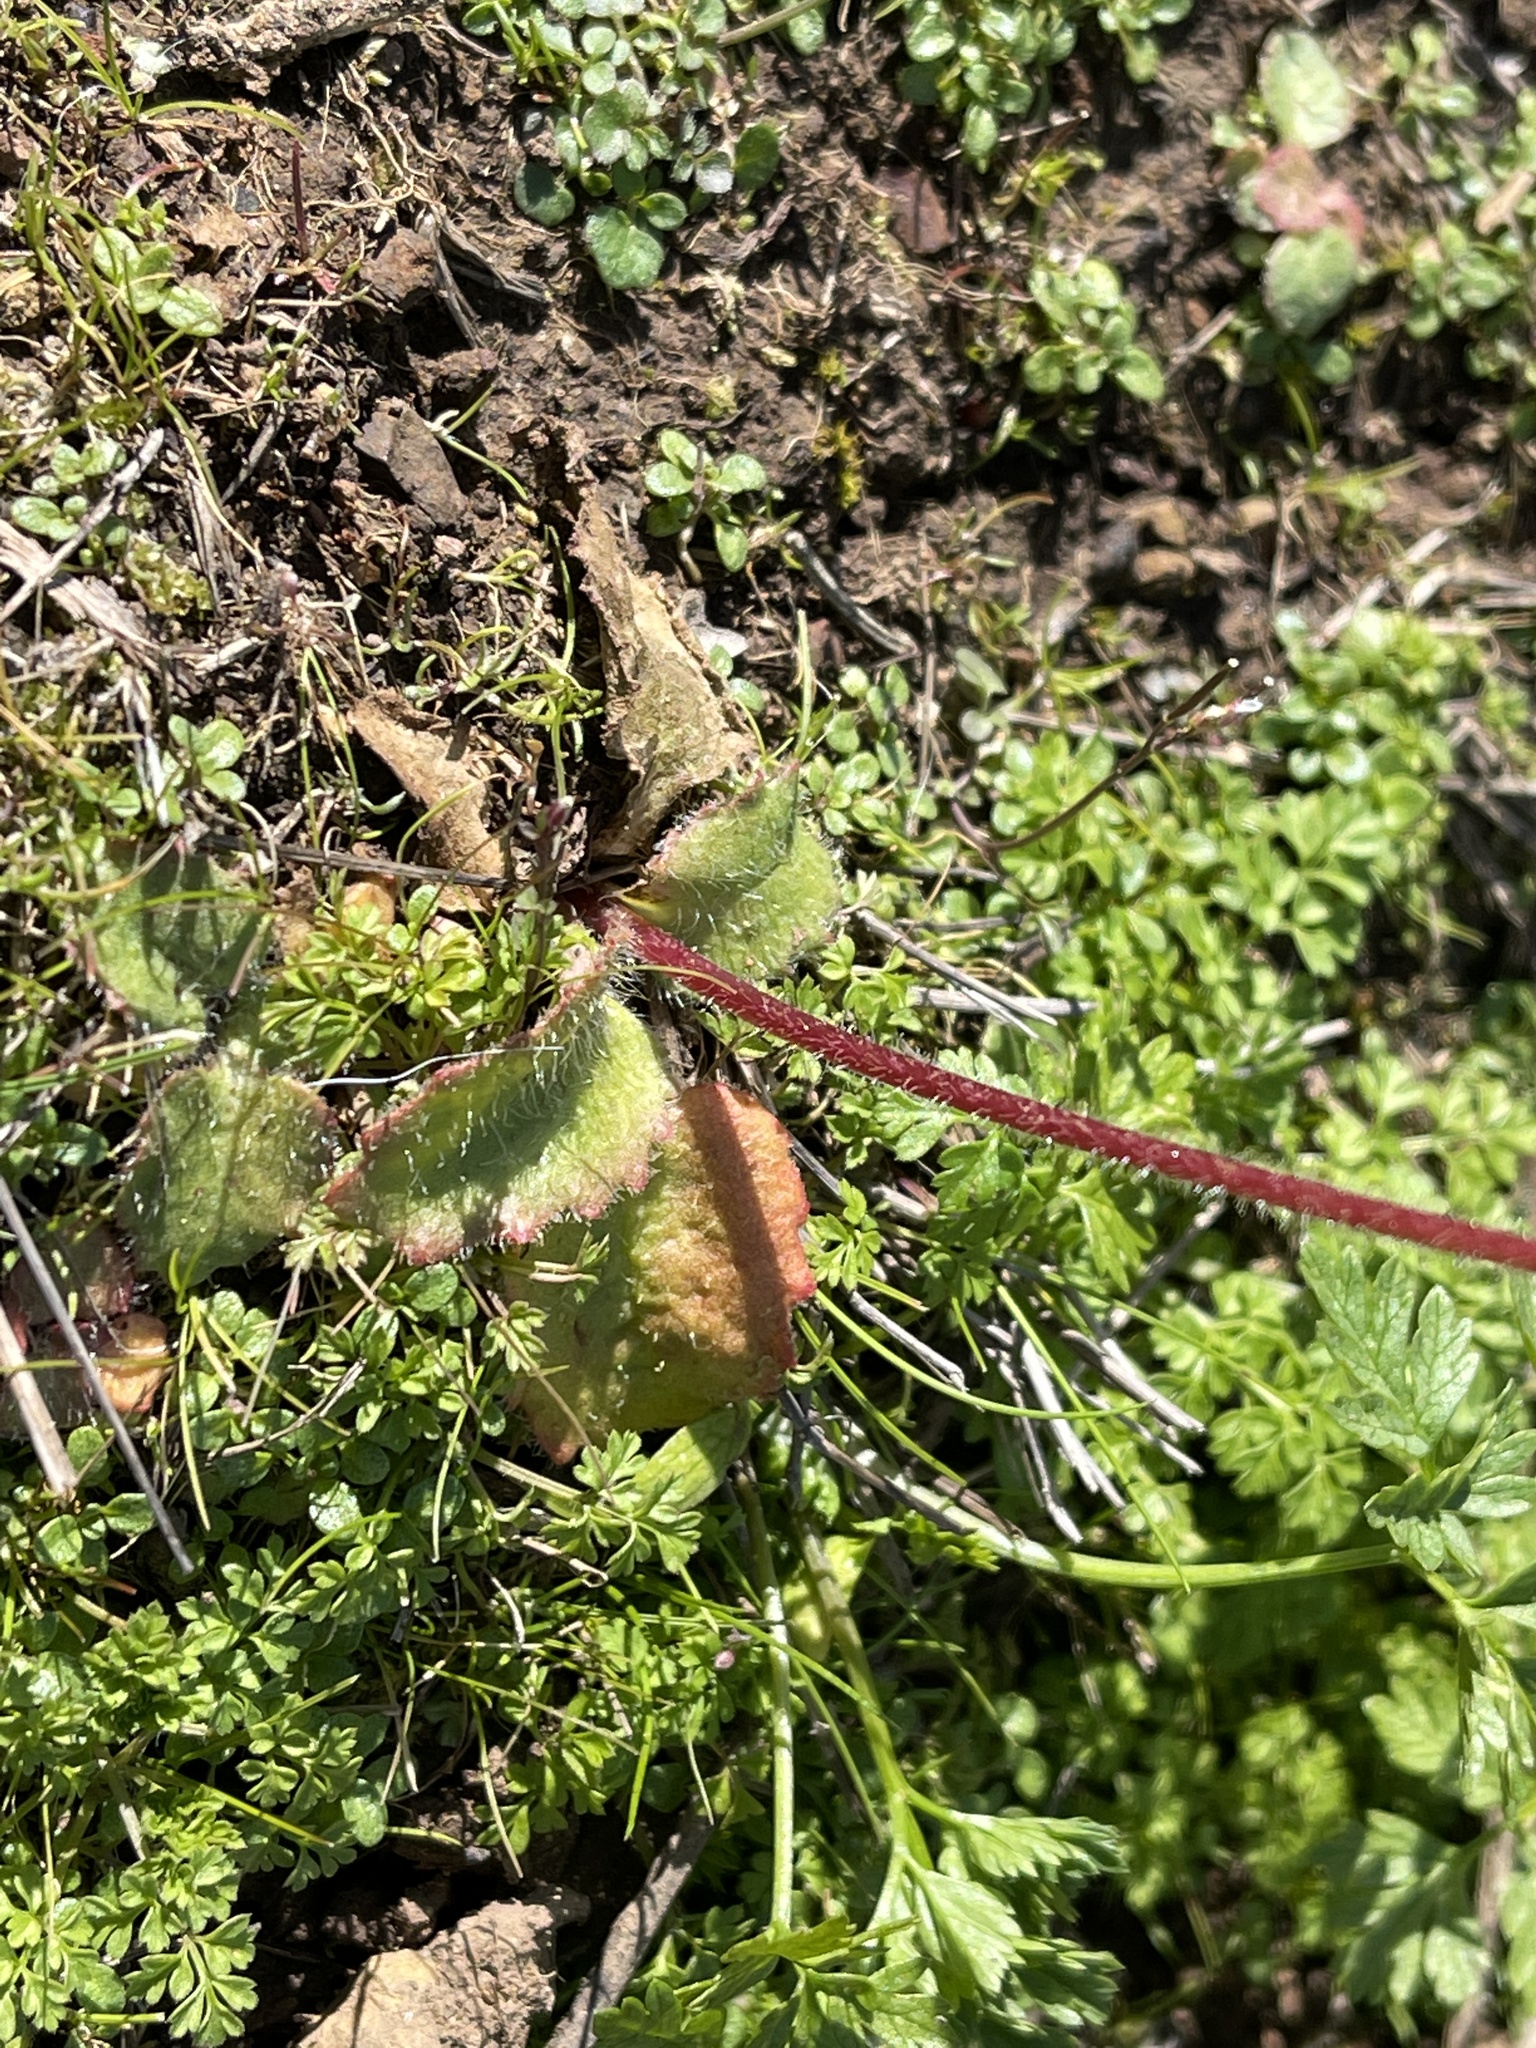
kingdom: Plantae
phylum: Tracheophyta
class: Magnoliopsida
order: Saxifragales
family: Saxifragaceae
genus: Micranthes
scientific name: Micranthes californica
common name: California saxifrage
